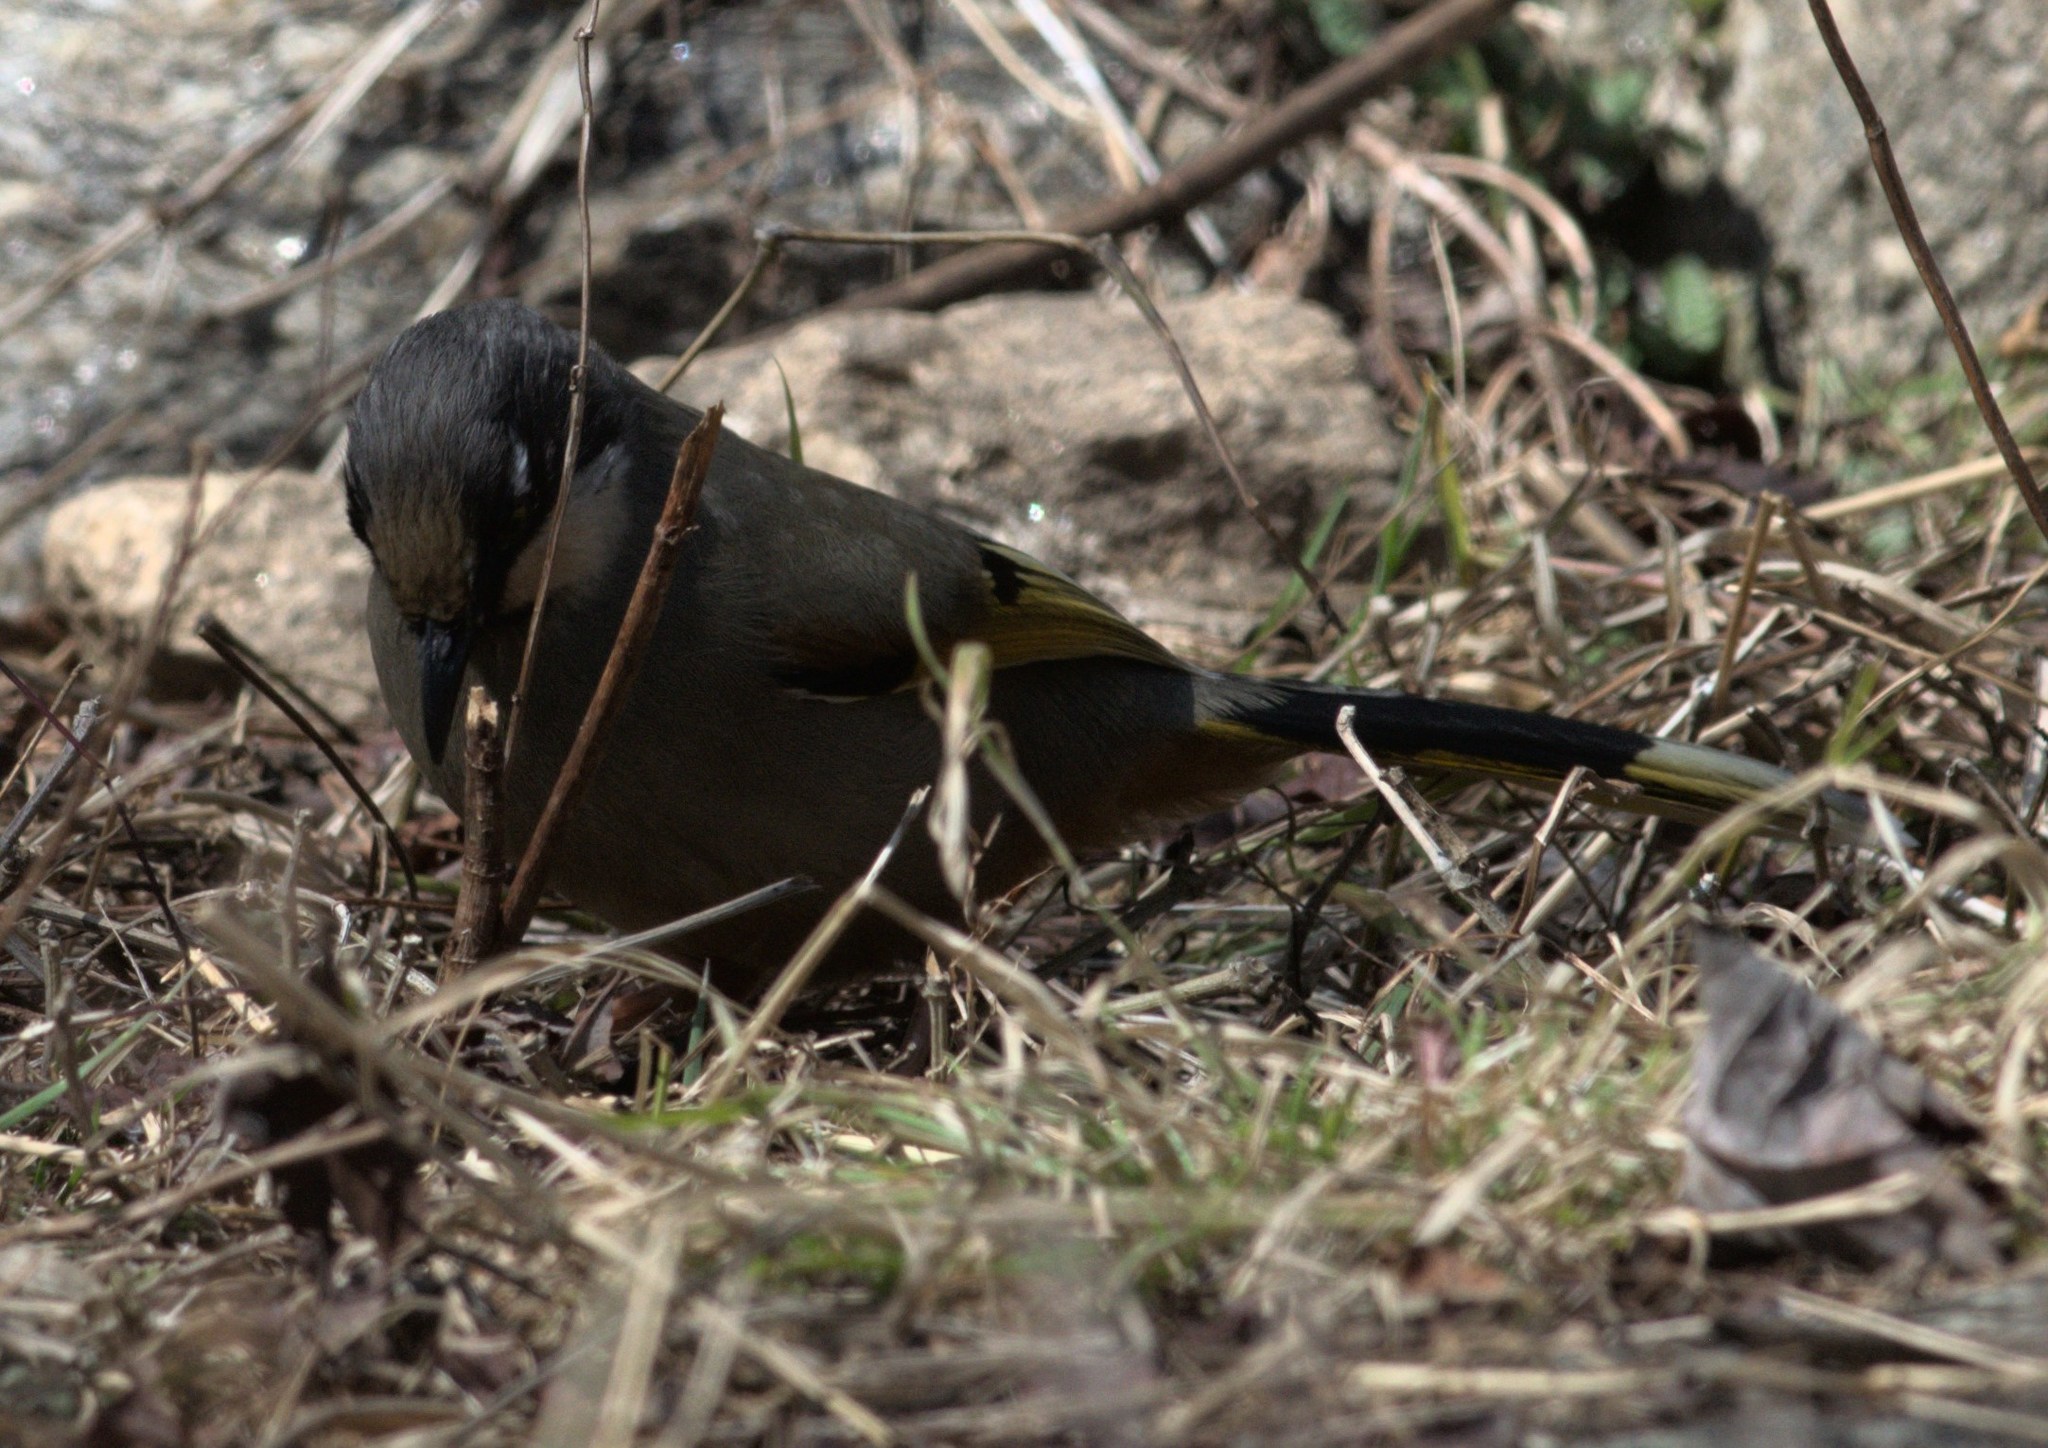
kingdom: Animalia
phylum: Chordata
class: Aves
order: Passeriformes
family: Leiothrichidae
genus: Trochalopteron
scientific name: Trochalopteron variegatum
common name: Variegated laughingthrush
